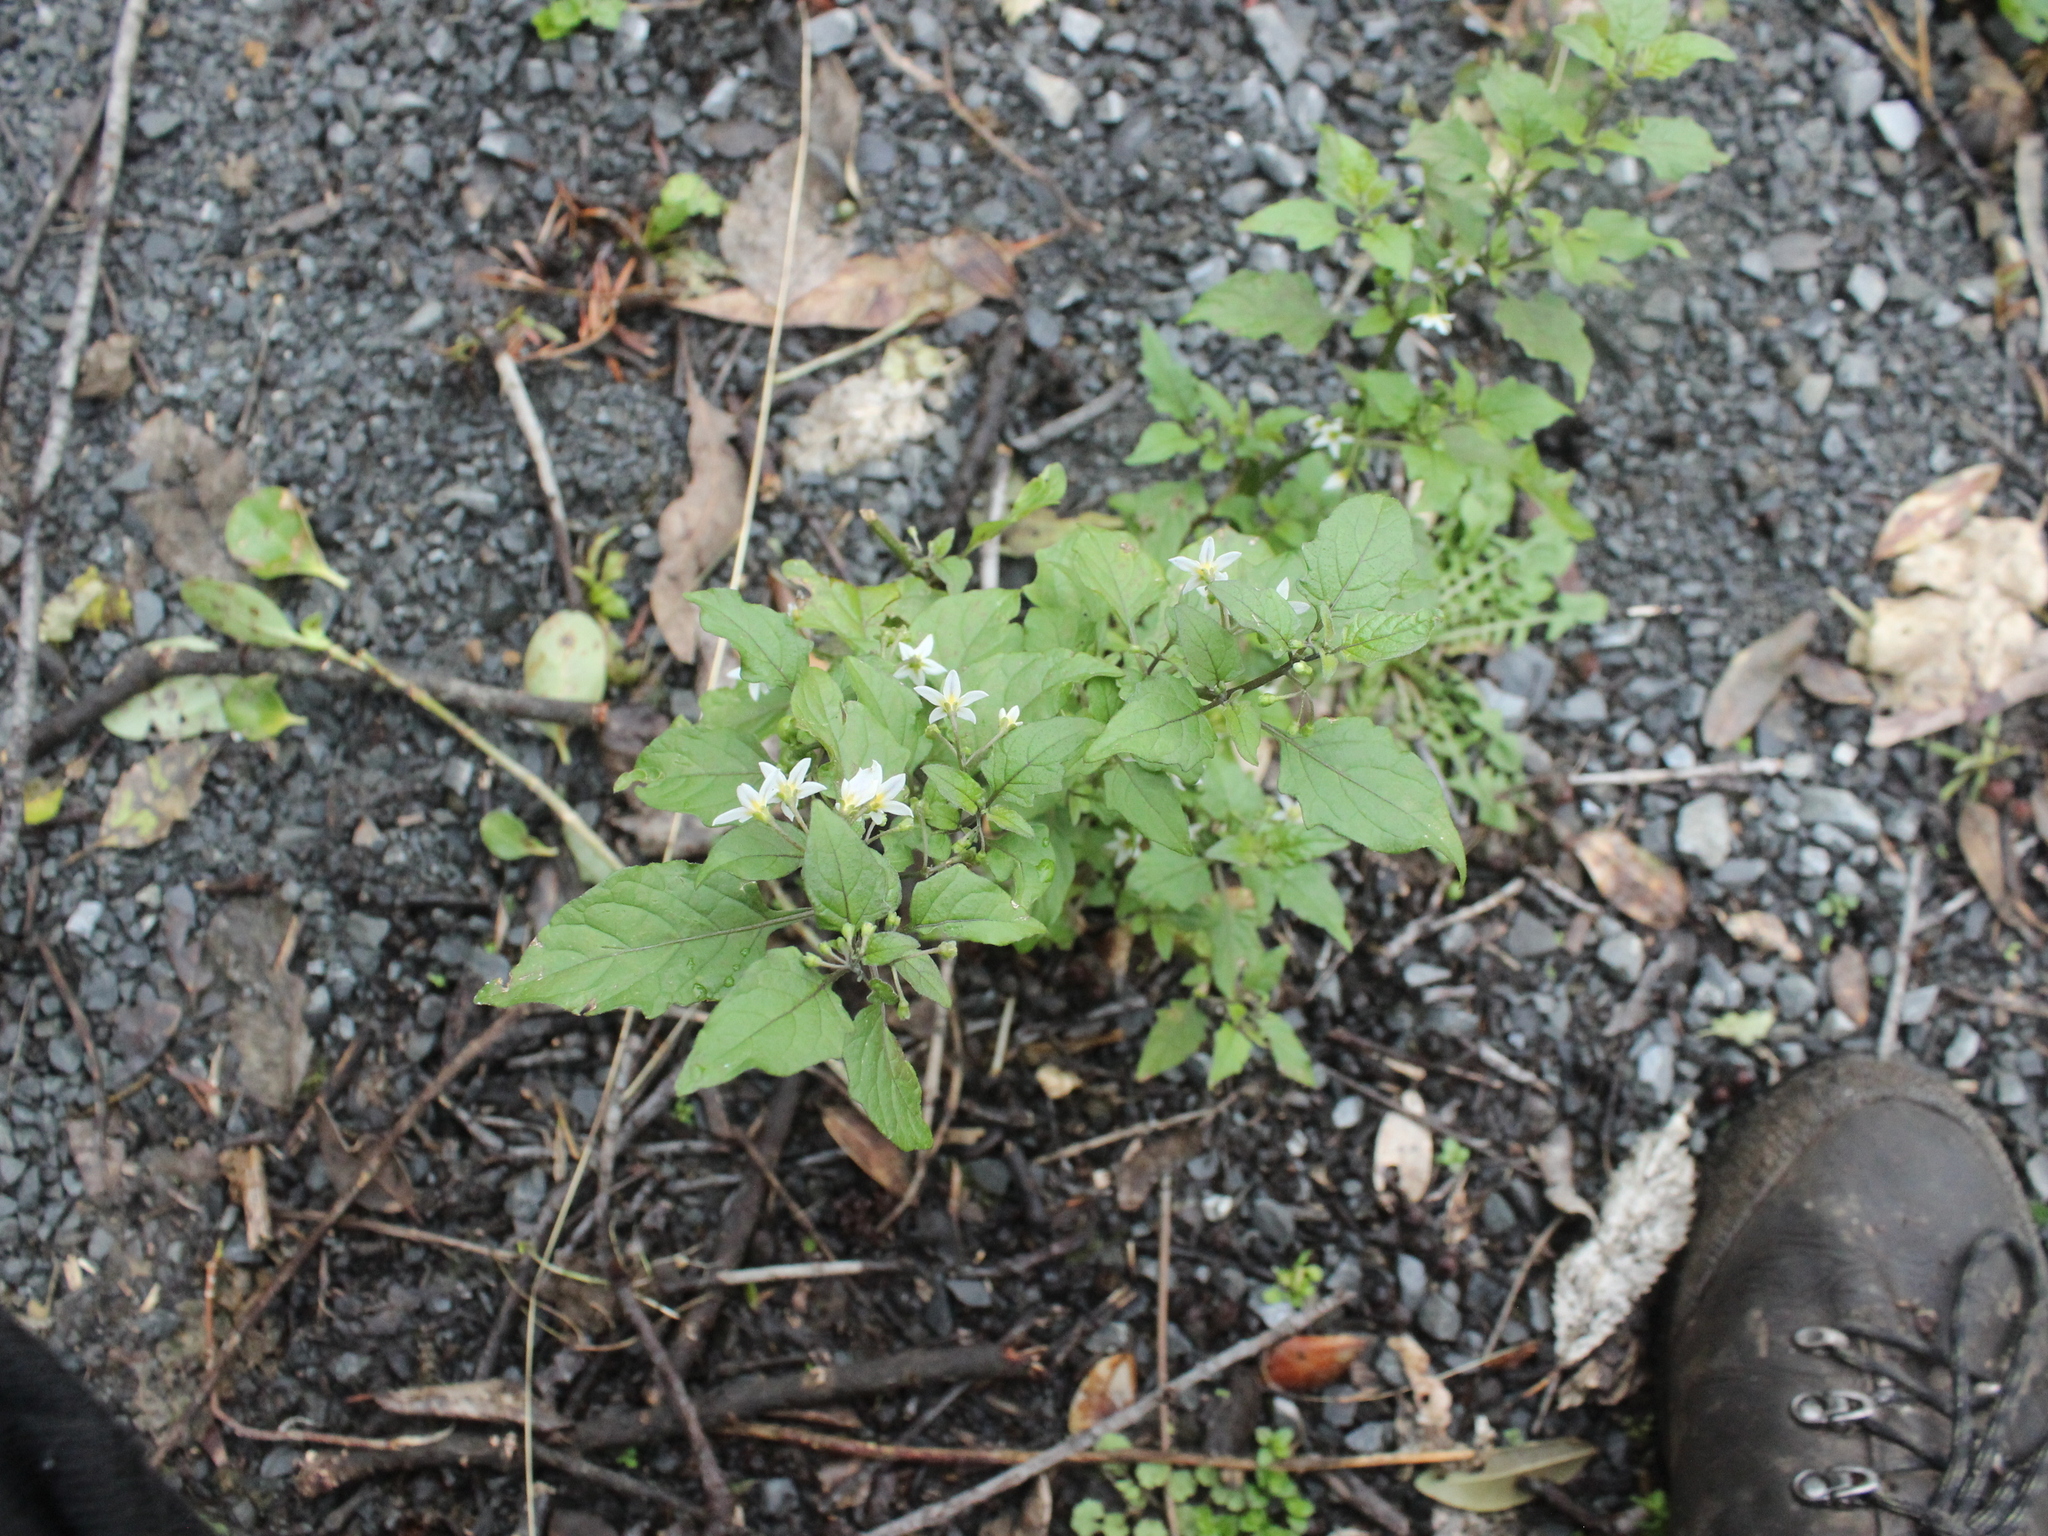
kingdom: Plantae
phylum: Tracheophyta
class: Magnoliopsida
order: Solanales
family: Solanaceae
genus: Solanum
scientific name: Solanum americanum
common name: American black nightshade
